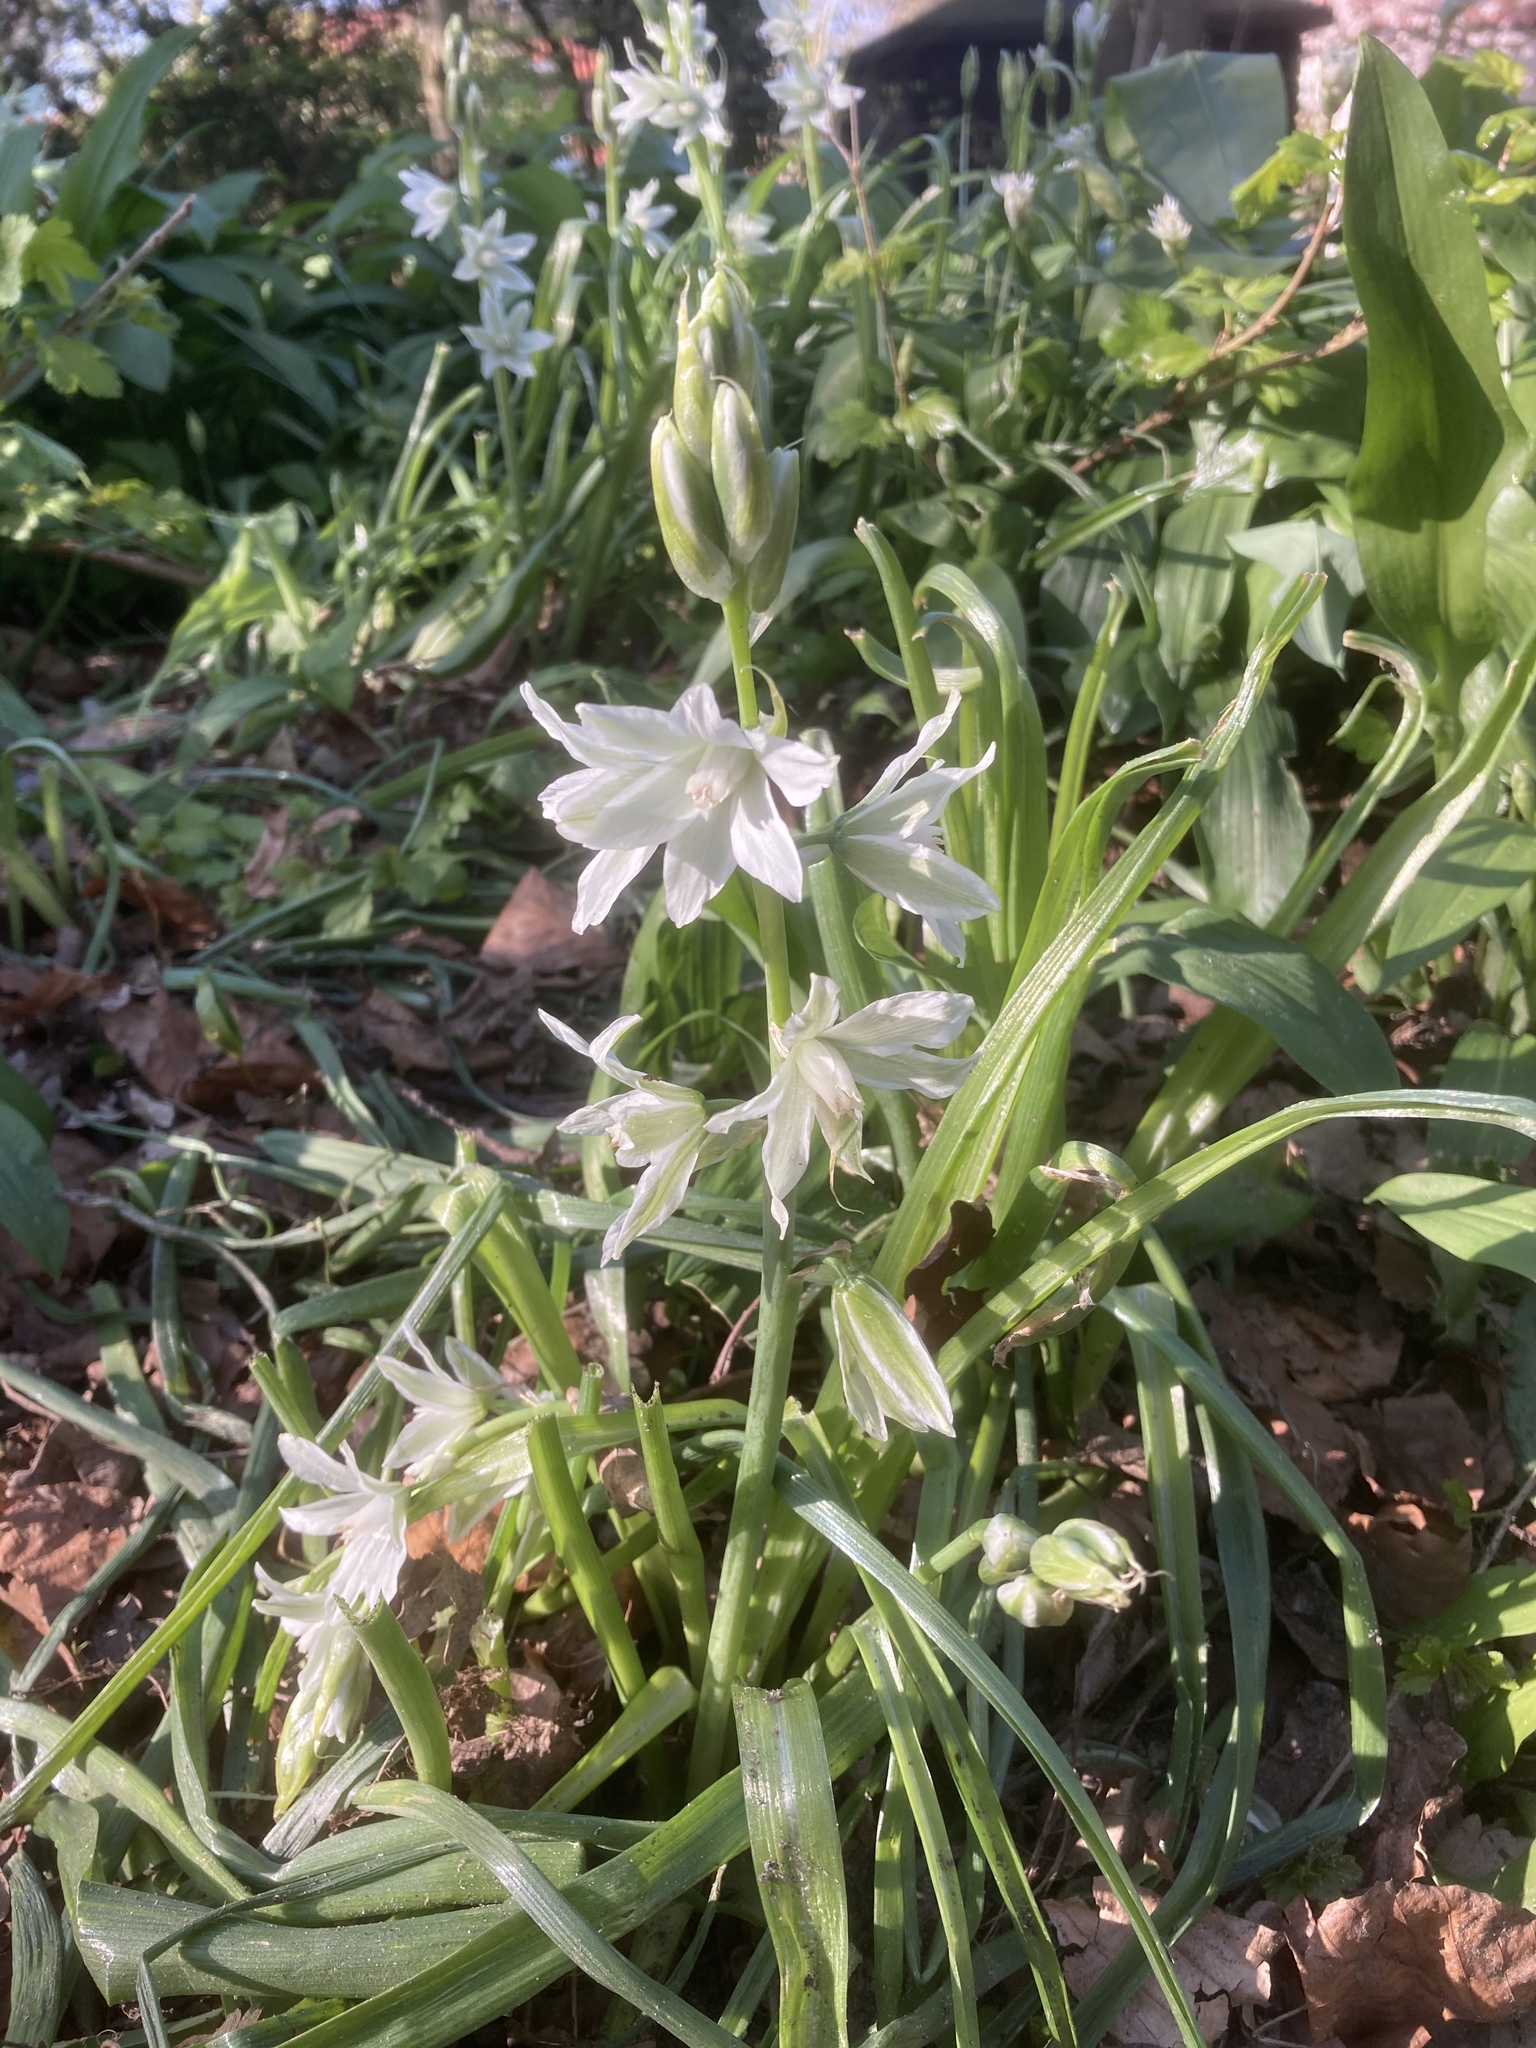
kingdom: Plantae
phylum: Tracheophyta
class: Liliopsida
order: Asparagales
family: Asparagaceae
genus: Ornithogalum
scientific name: Ornithogalum nutans
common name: Drooping star-of-bethlehem
